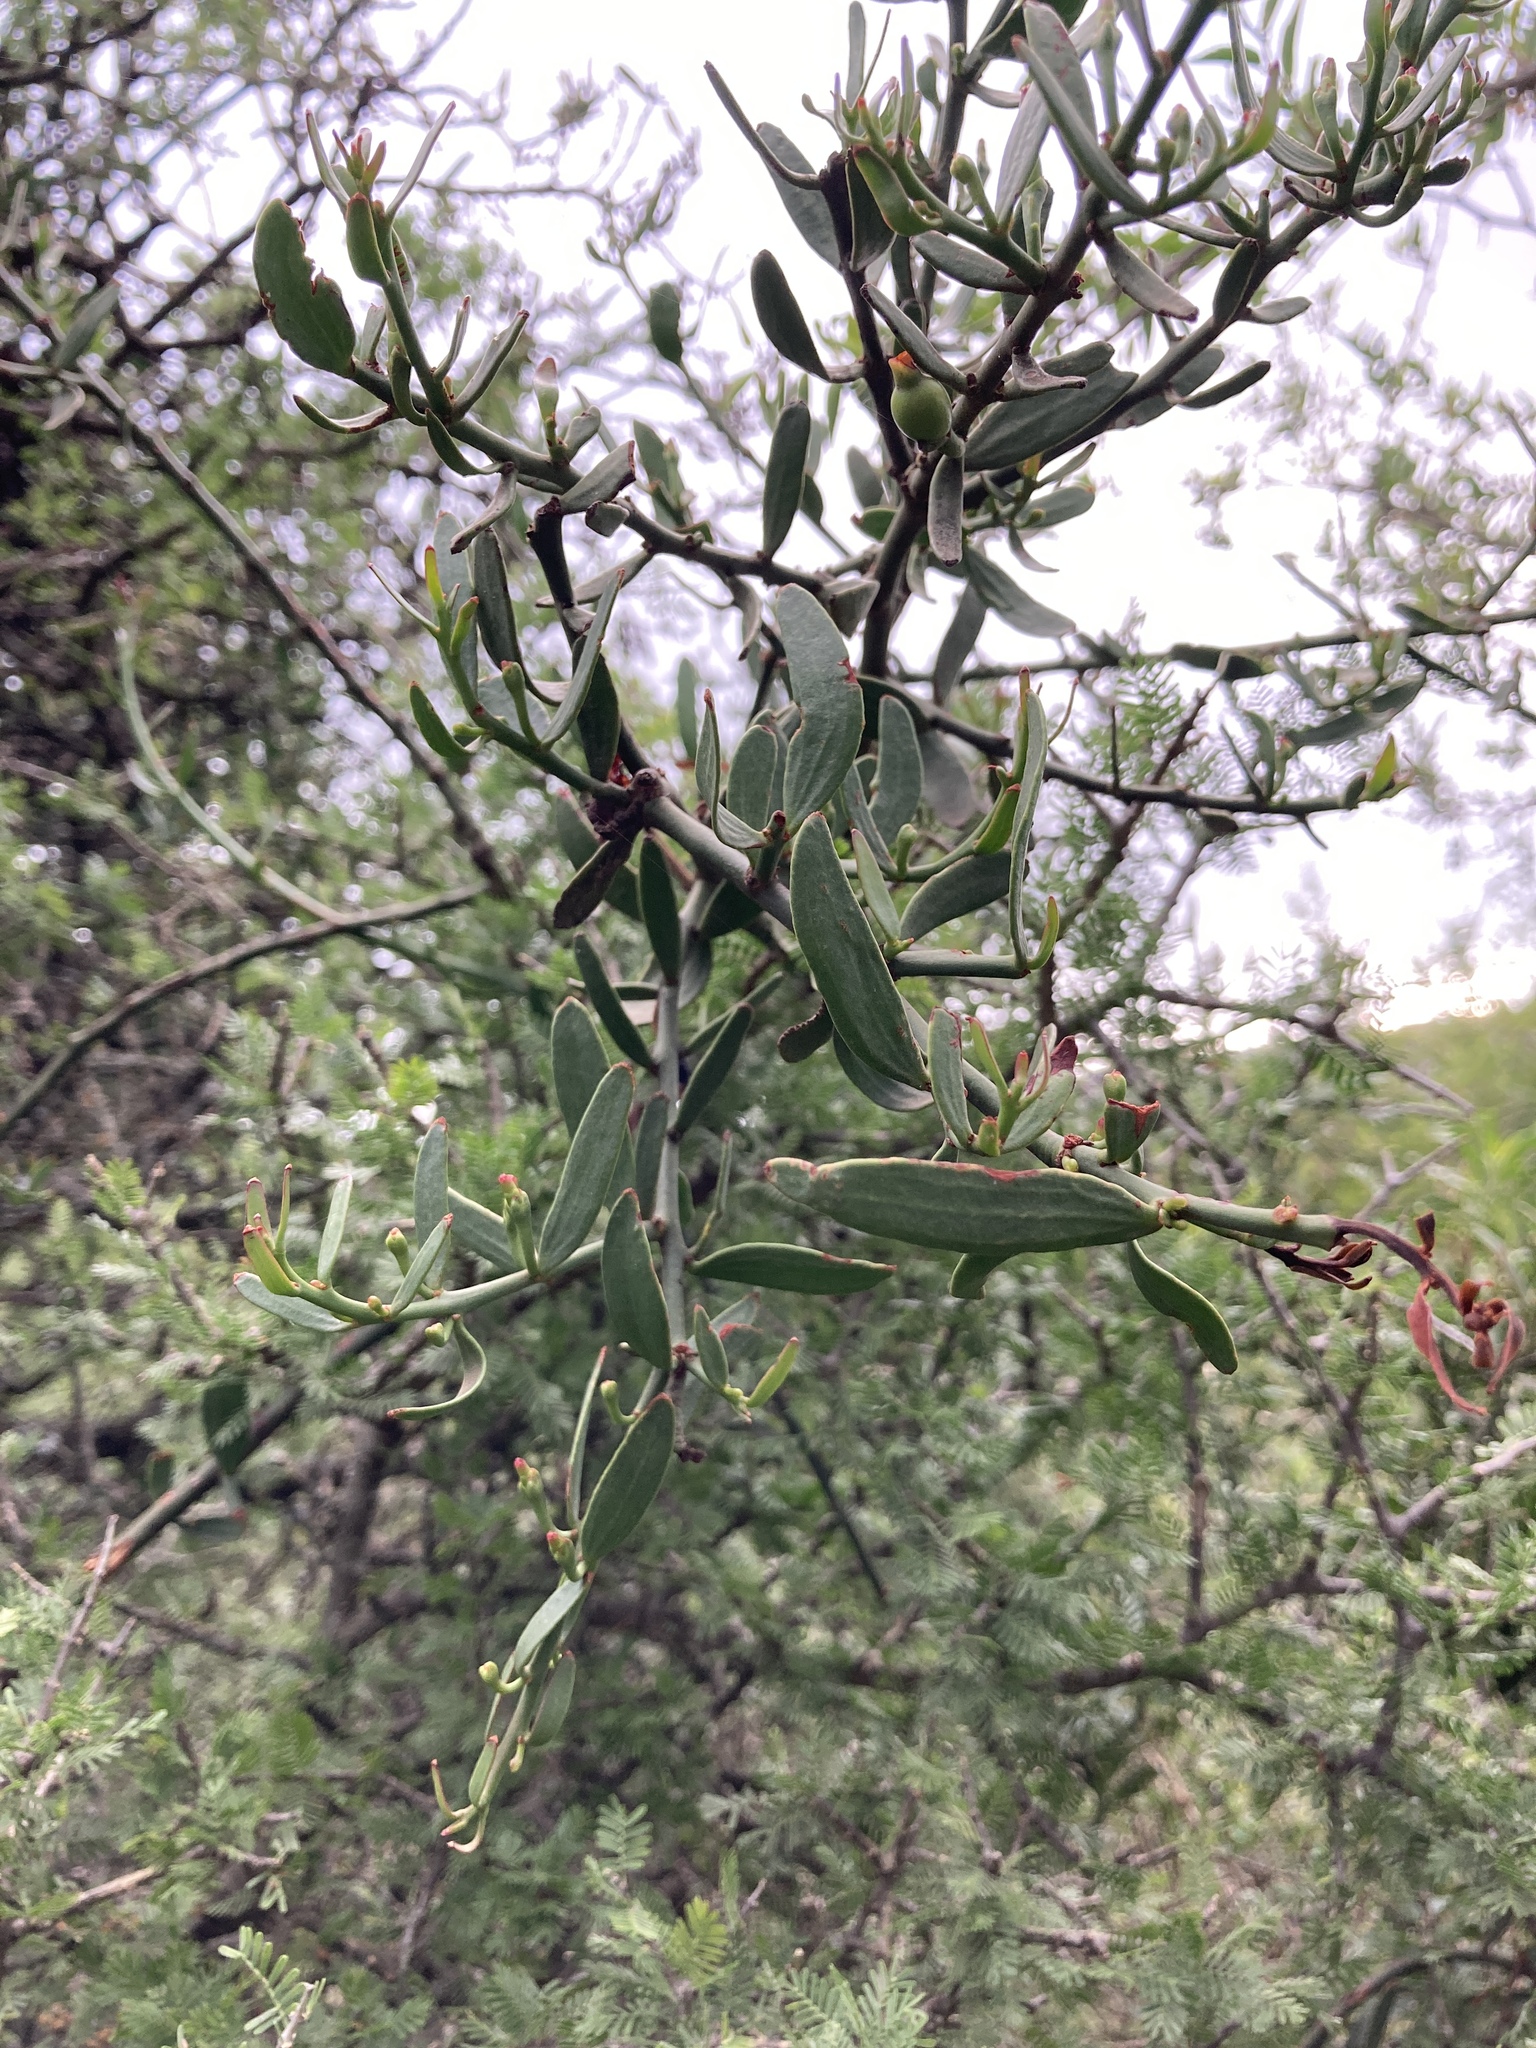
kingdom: Plantae
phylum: Tracheophyta
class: Magnoliopsida
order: Santalales
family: Loranthaceae
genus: Ligaria
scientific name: Ligaria cuneifolia
